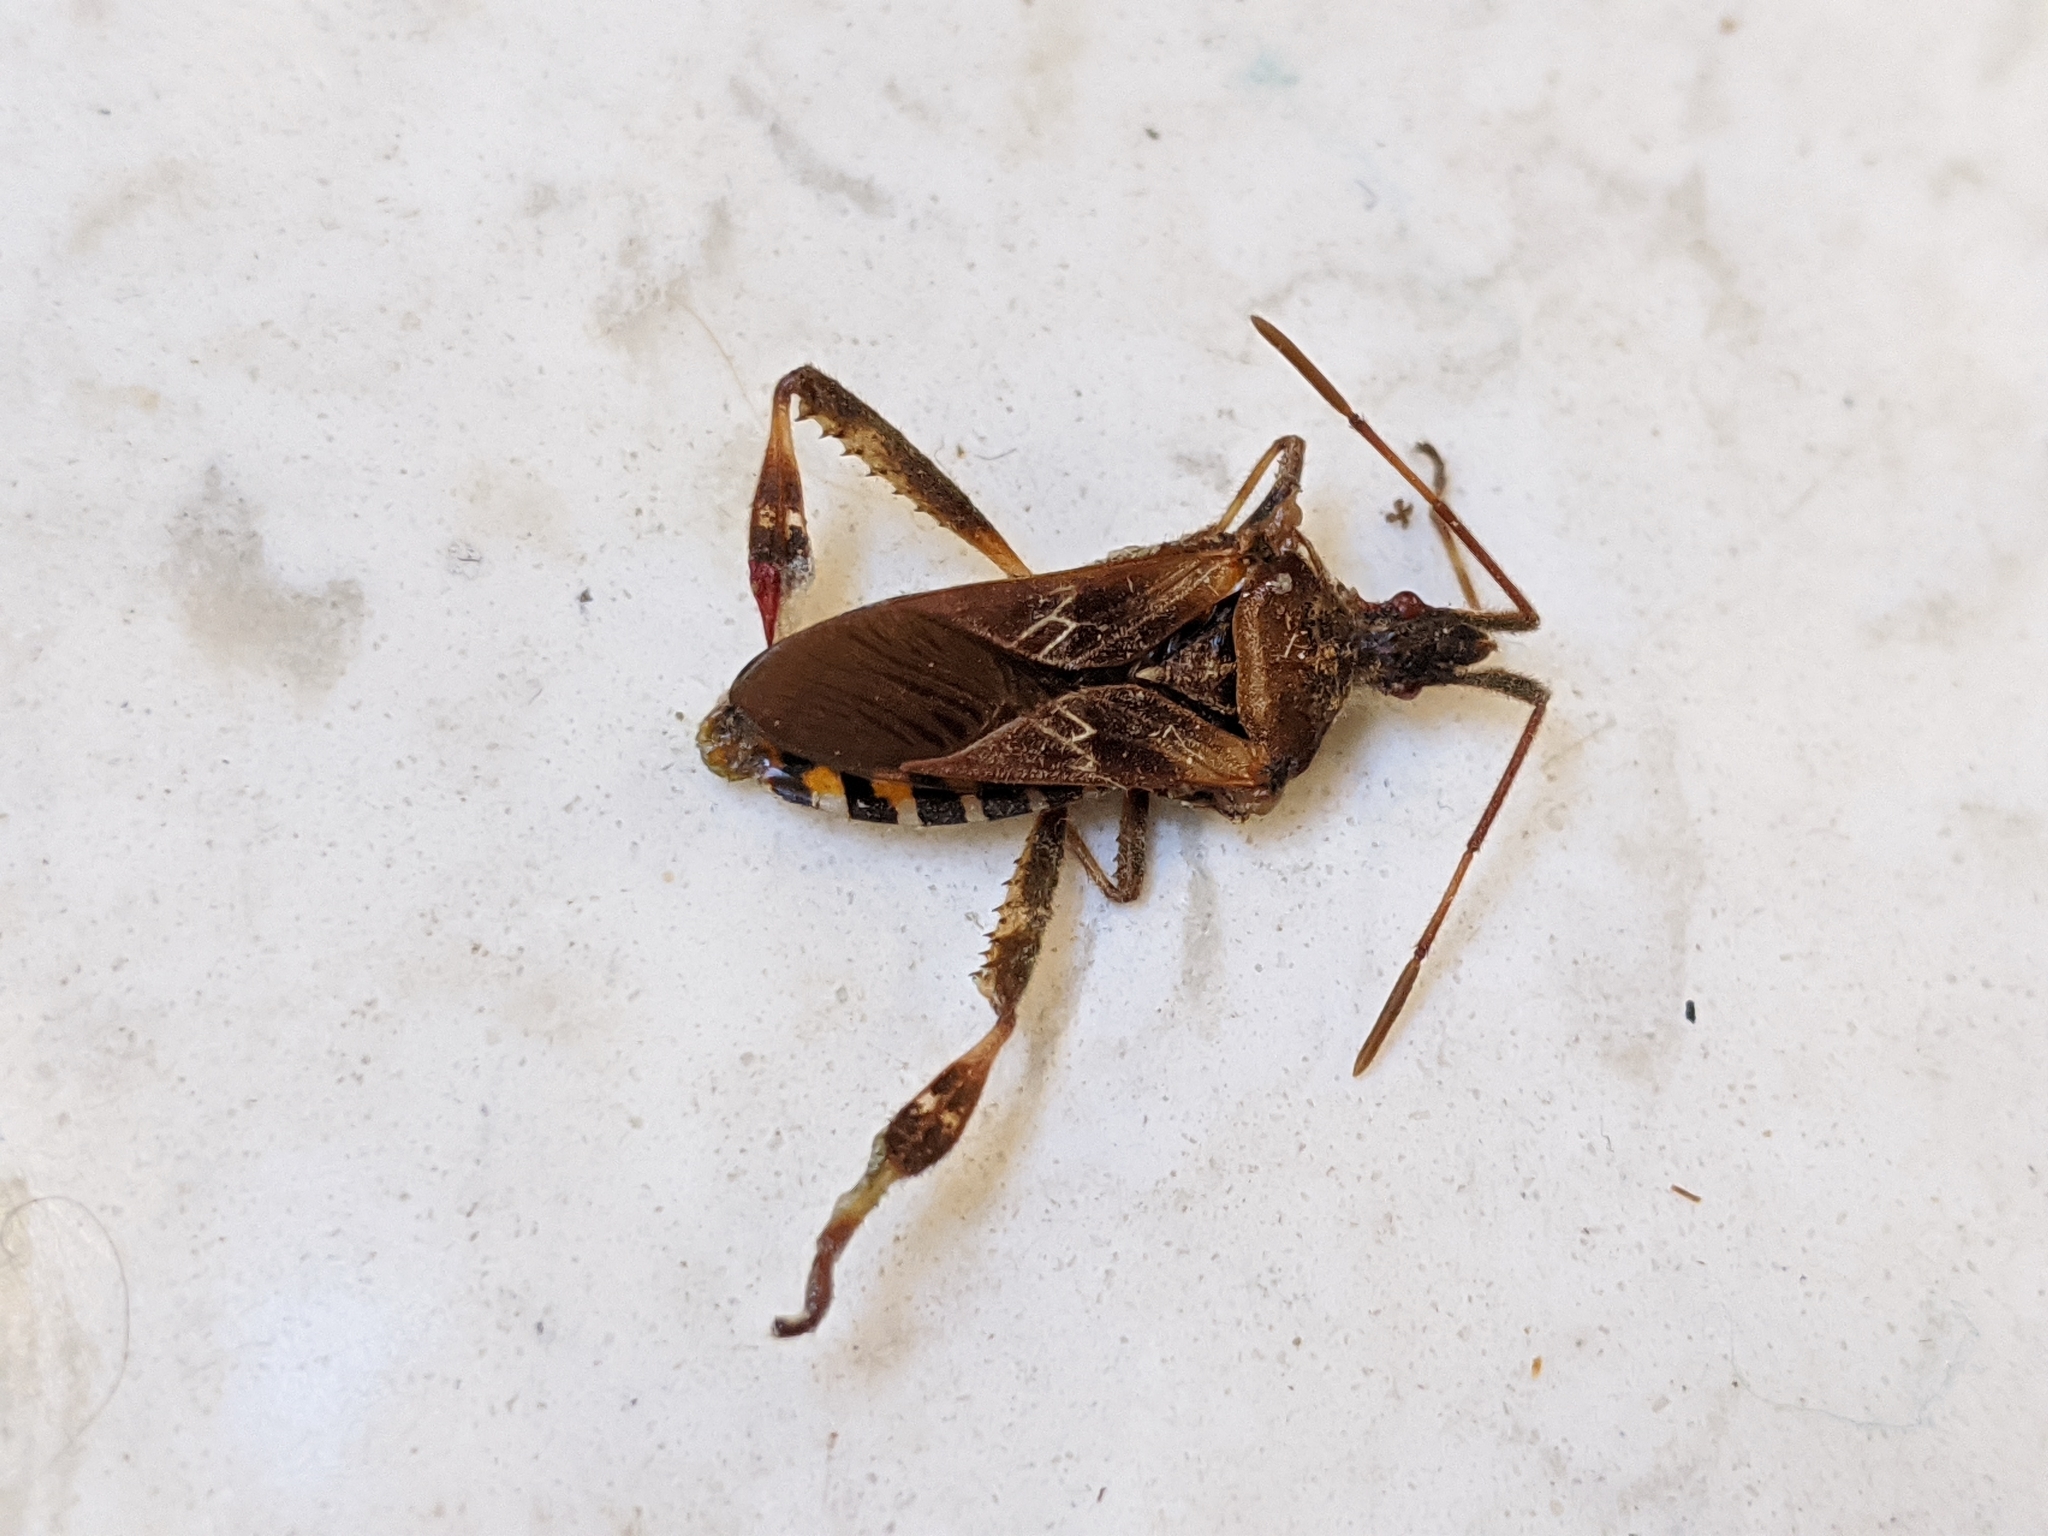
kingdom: Animalia
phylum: Arthropoda
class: Insecta
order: Hemiptera
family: Coreidae
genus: Leptoglossus
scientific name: Leptoglossus occidentalis
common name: Western conifer-seed bug
